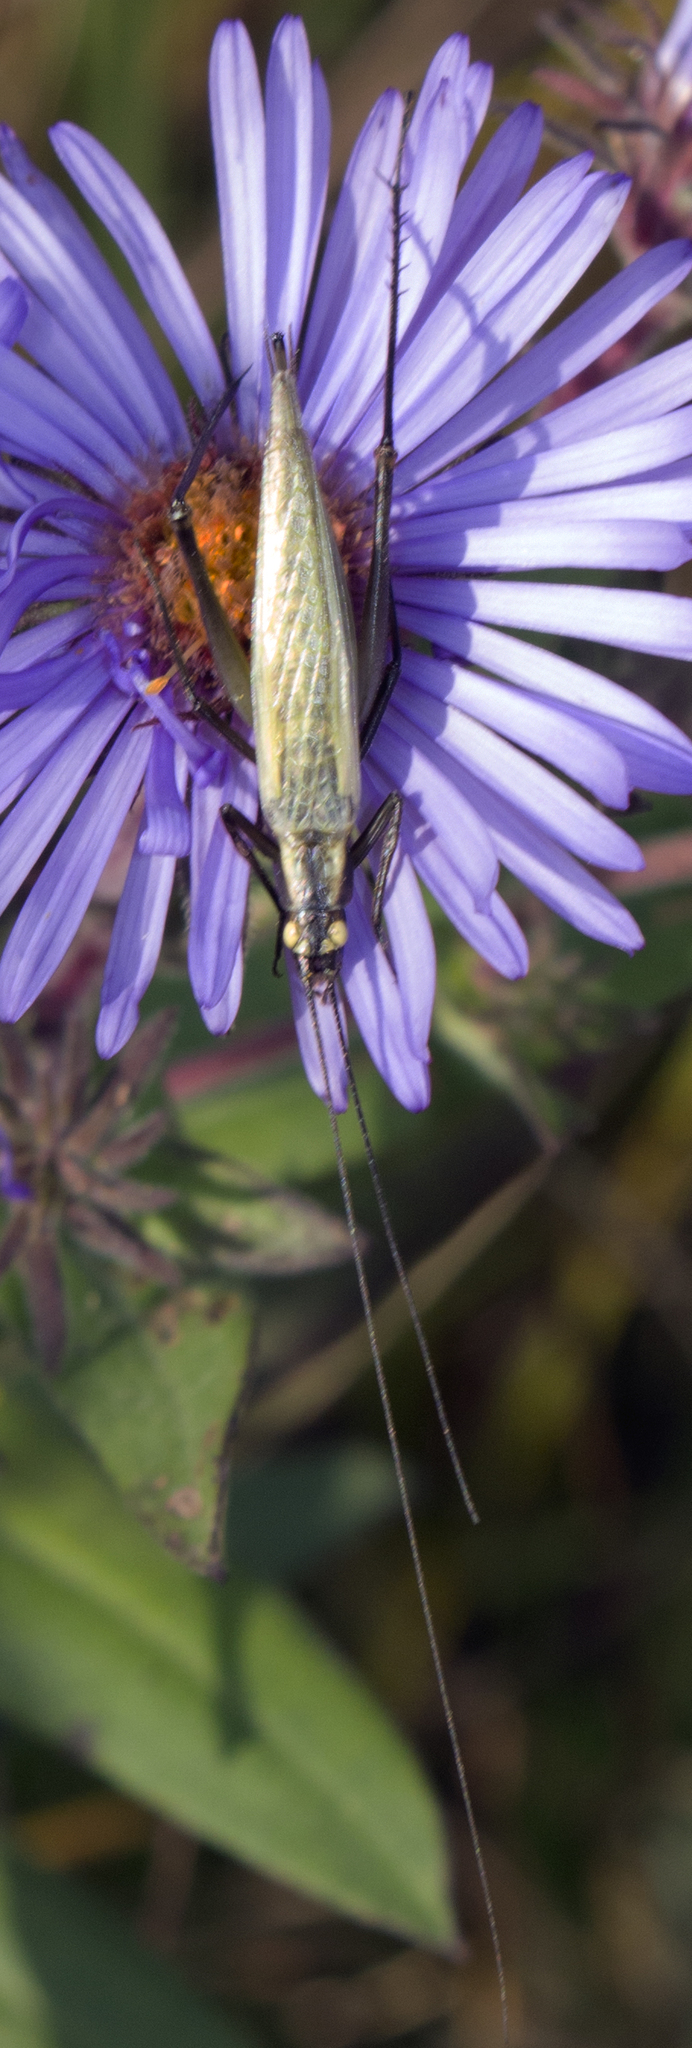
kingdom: Animalia
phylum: Arthropoda
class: Insecta
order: Orthoptera
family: Gryllidae
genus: Oecanthus
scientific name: Oecanthus forbesi
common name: Forbes’s tree cricket
